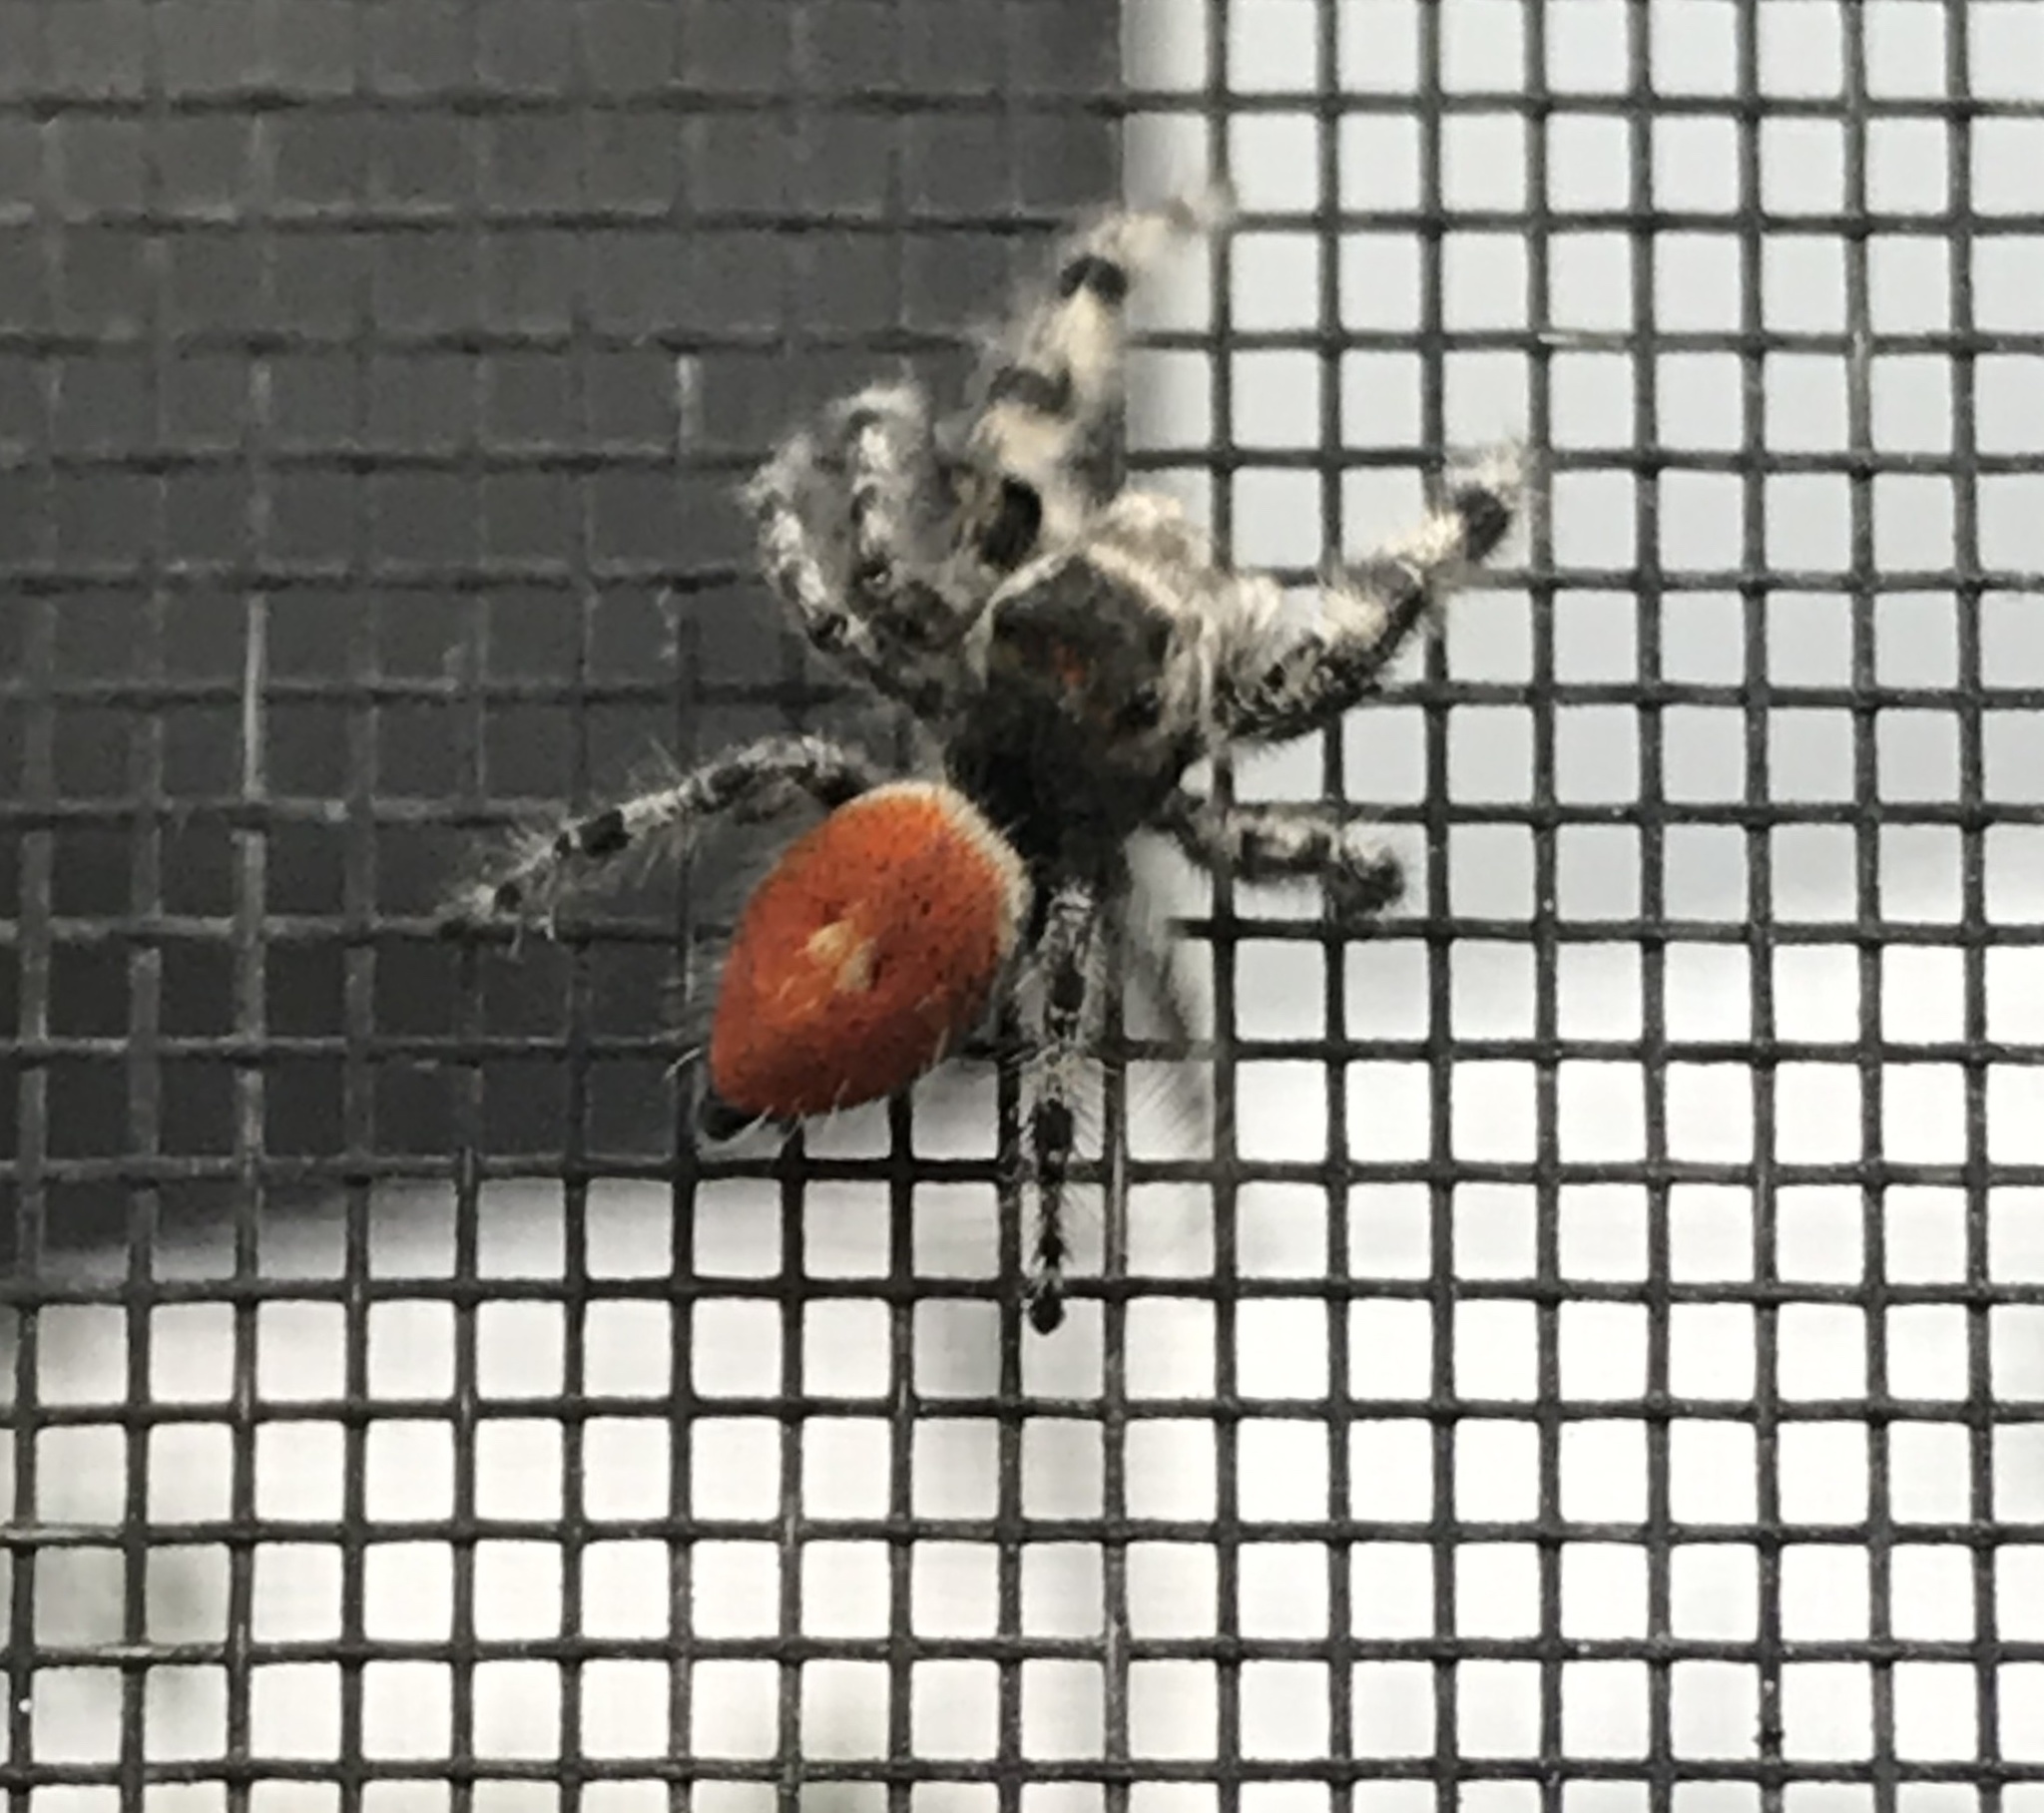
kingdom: Animalia
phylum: Arthropoda
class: Arachnida
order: Araneae
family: Salticidae
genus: Phidippus
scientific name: Phidippus adumbratus
